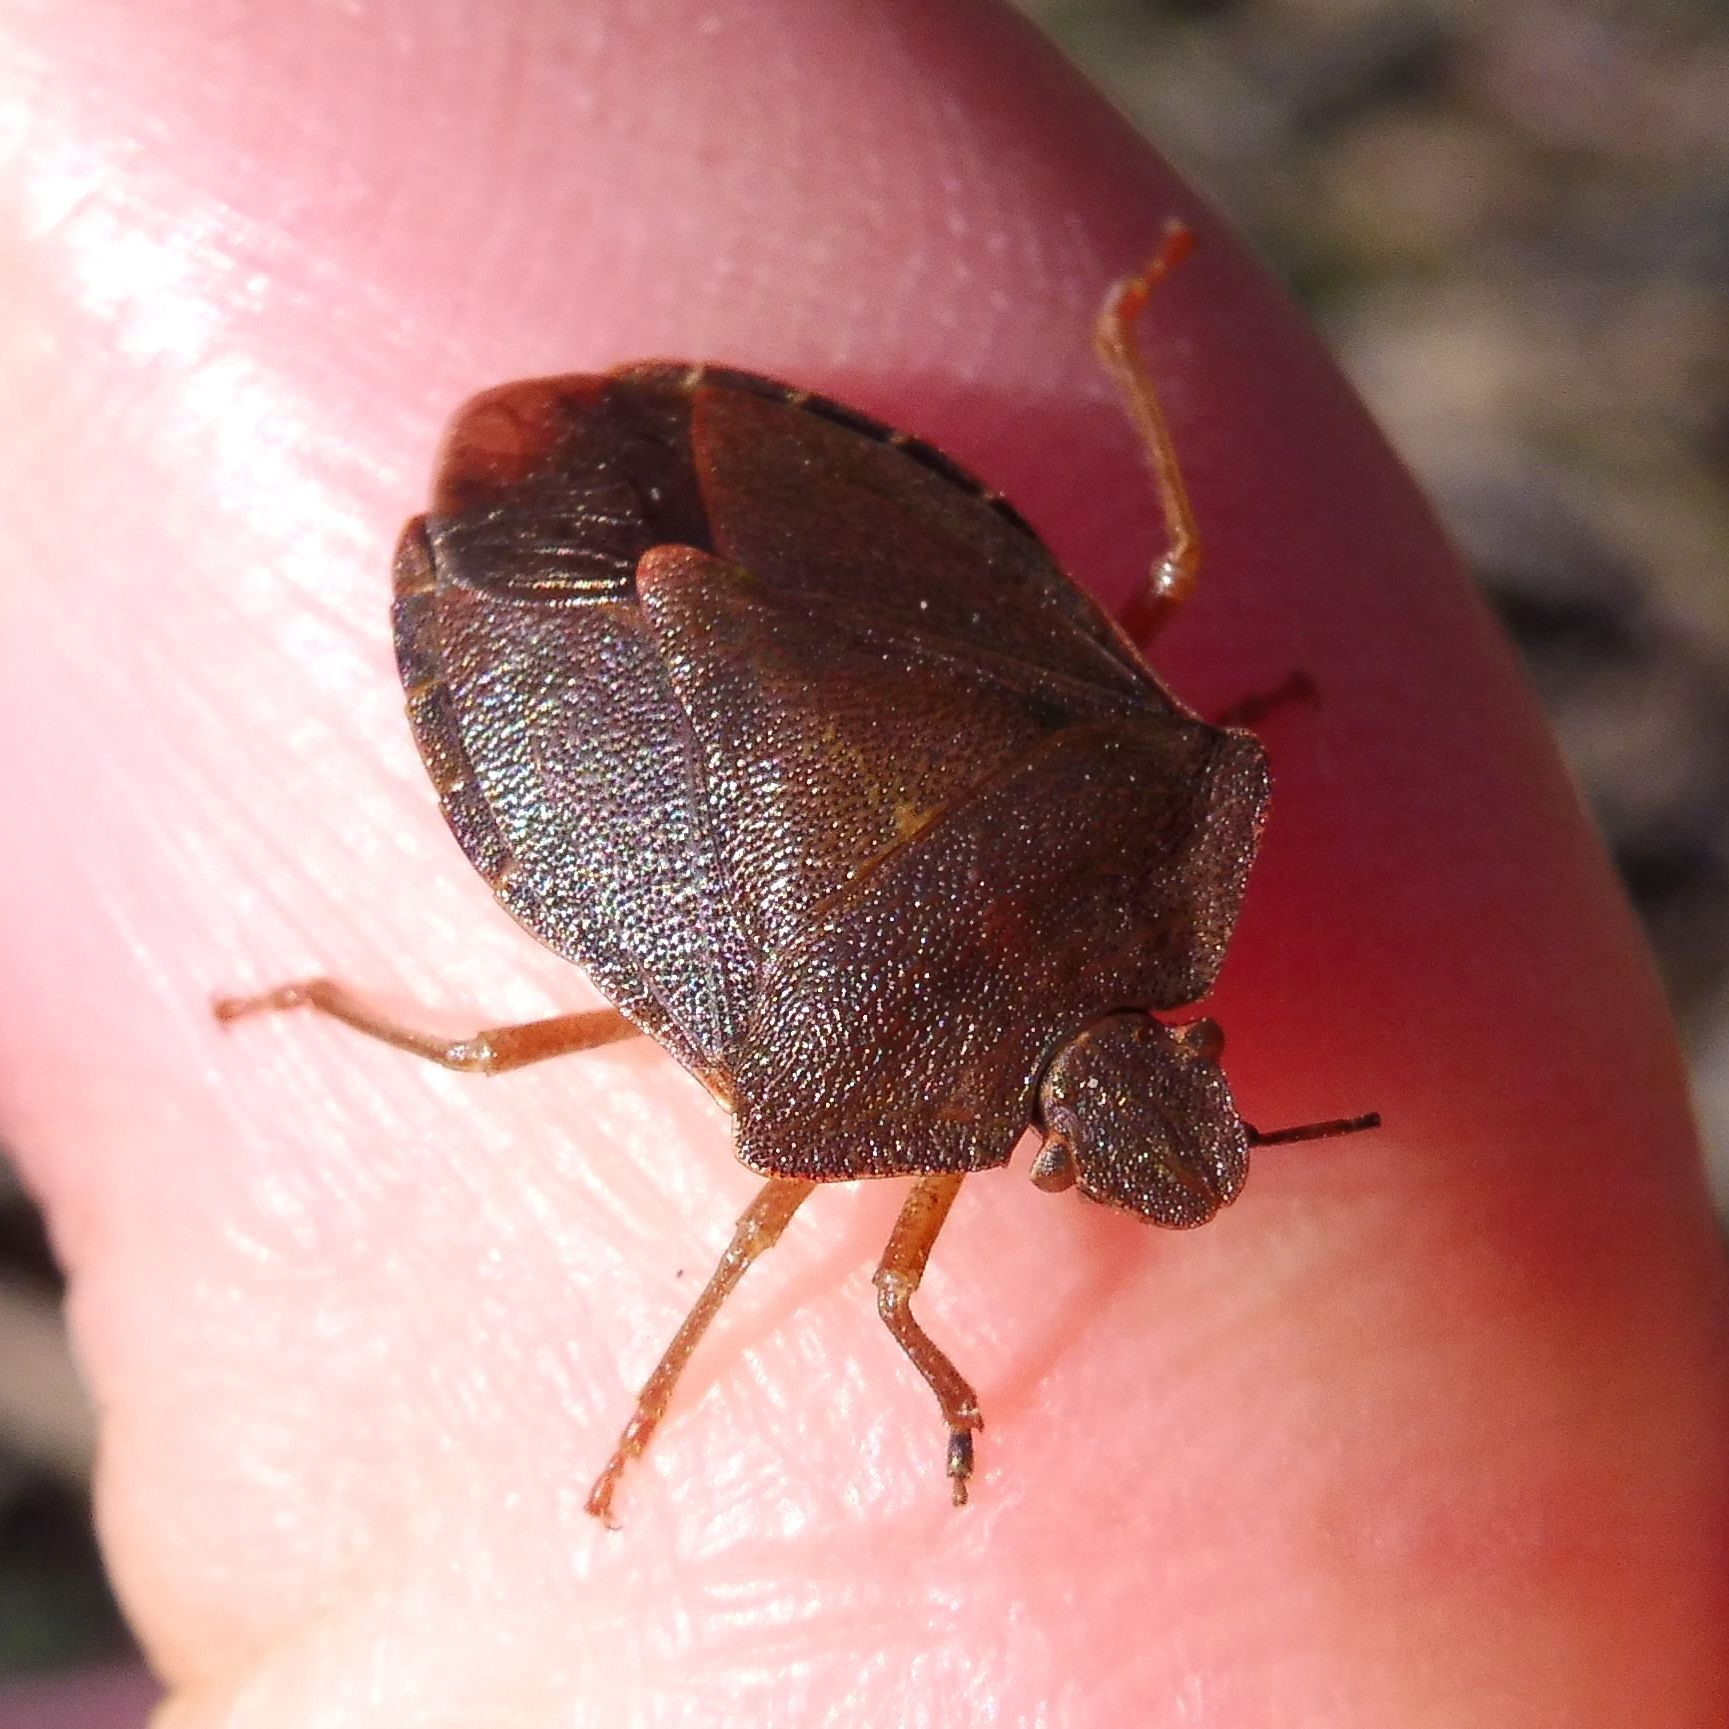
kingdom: Animalia
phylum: Arthropoda
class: Insecta
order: Hemiptera
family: Pentatomidae
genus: Palomena
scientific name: Palomena prasina
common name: Green shieldbug
